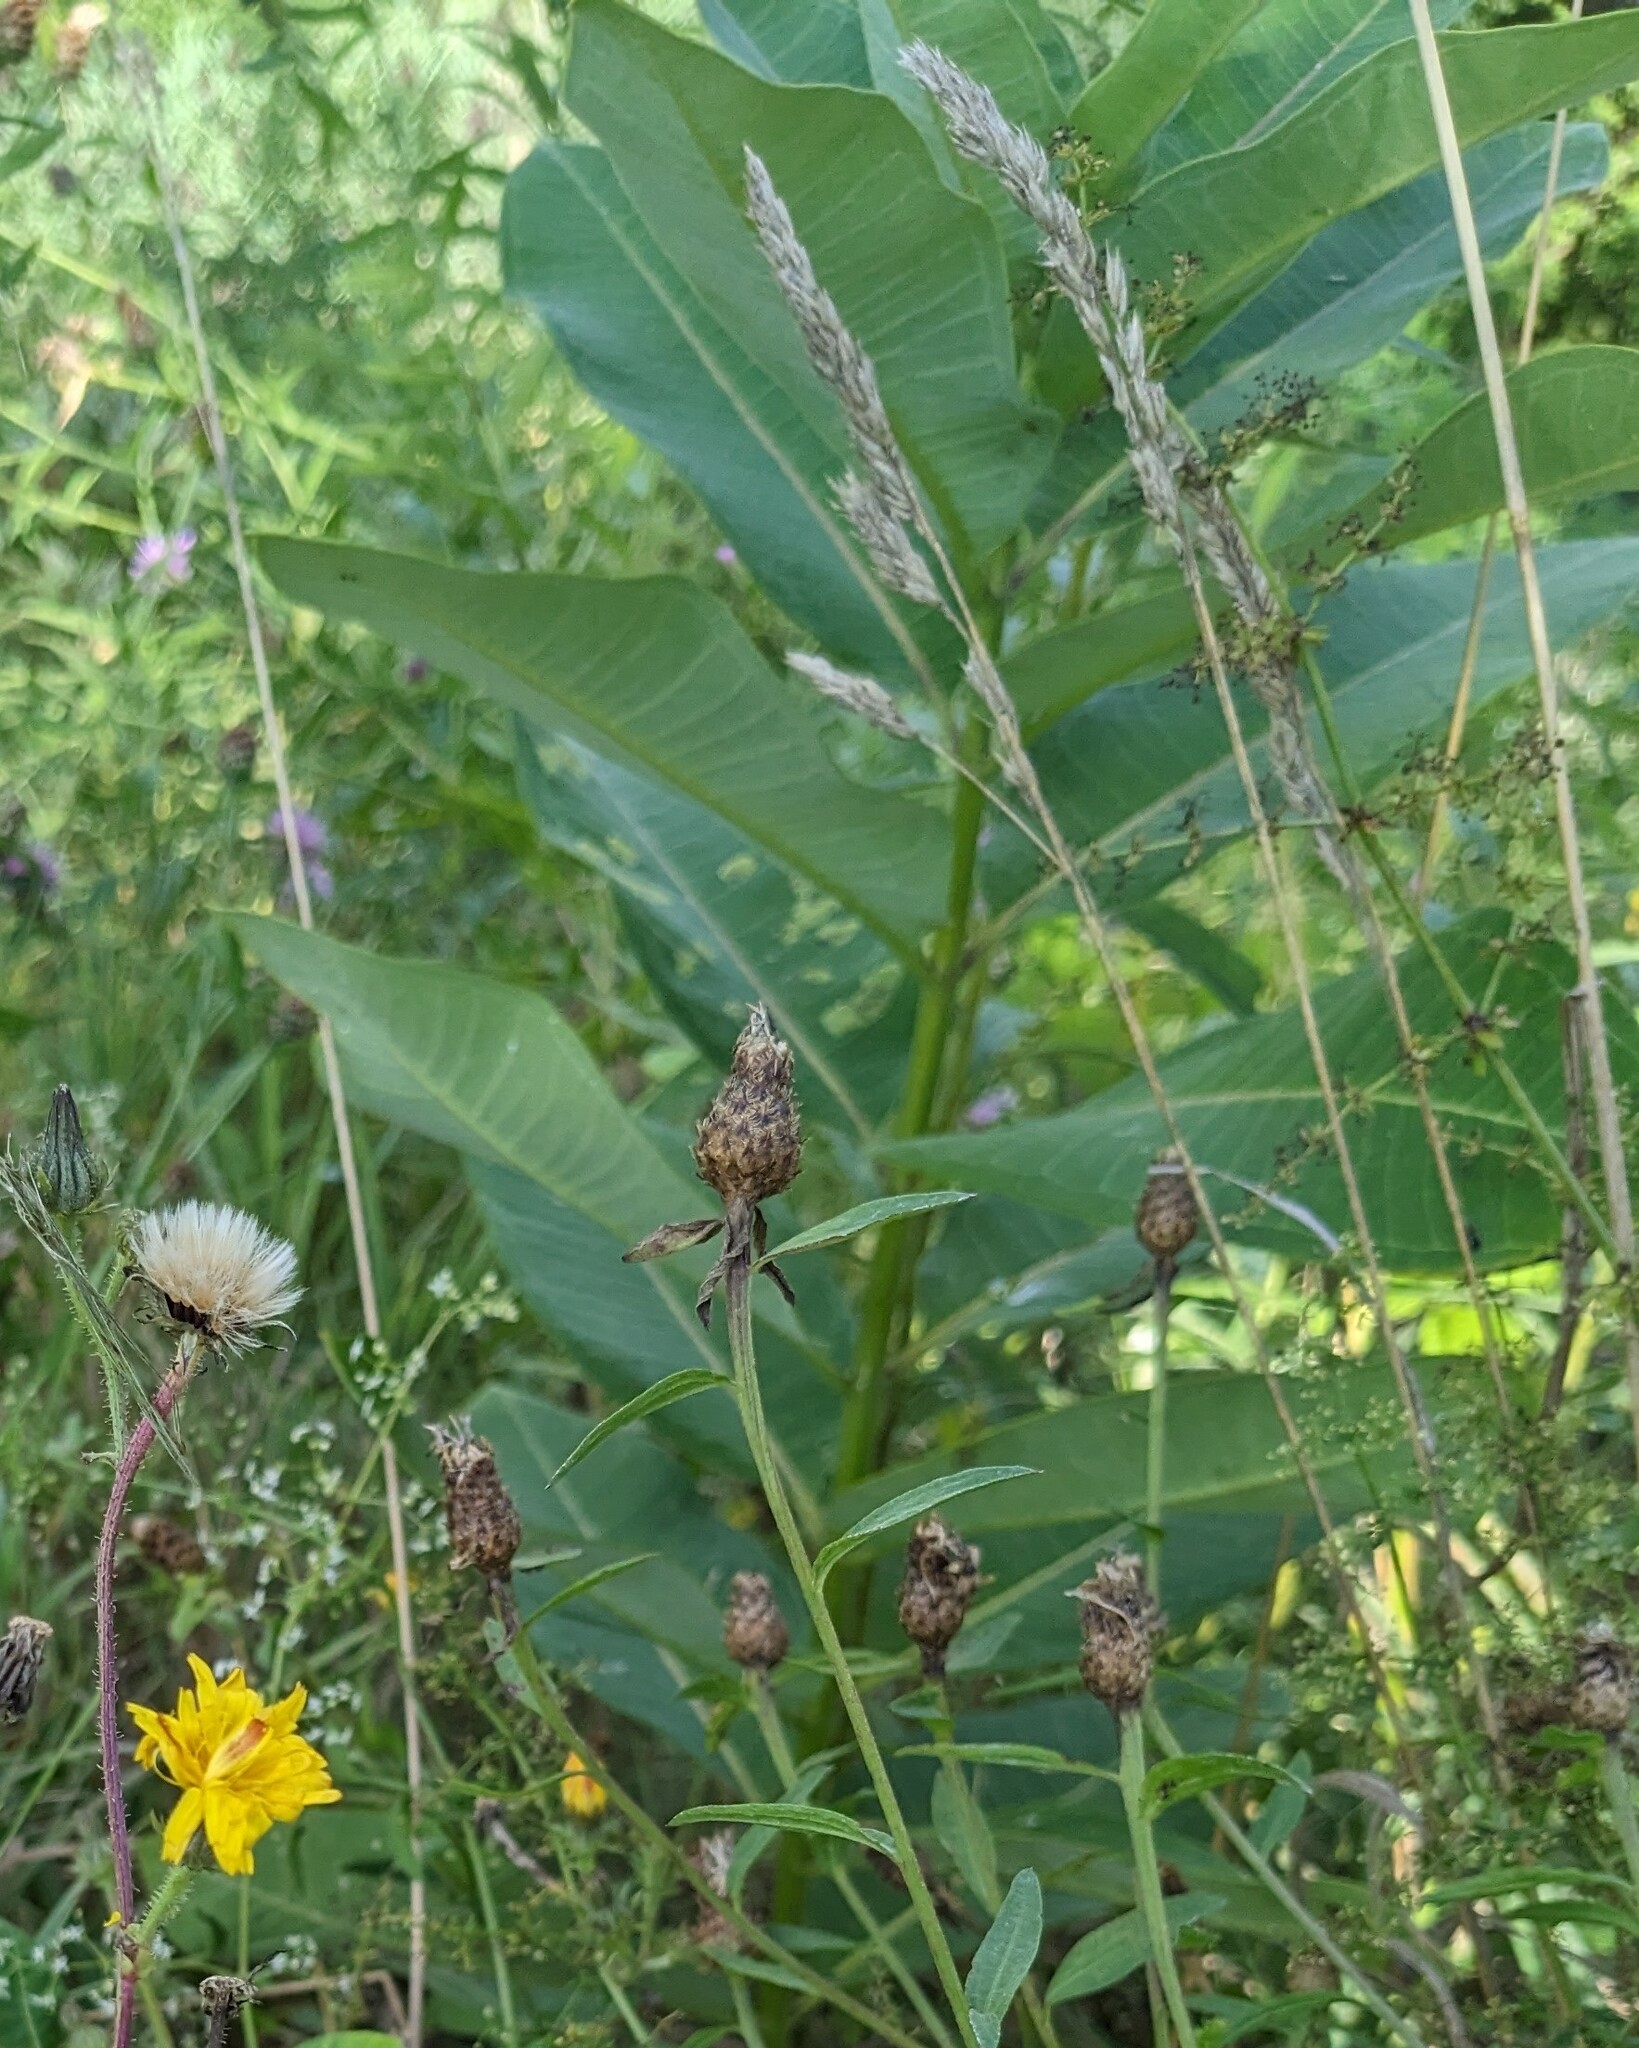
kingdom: Plantae
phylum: Tracheophyta
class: Magnoliopsida
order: Gentianales
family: Apocynaceae
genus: Asclepias
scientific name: Asclepias syriaca
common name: Common milkweed
